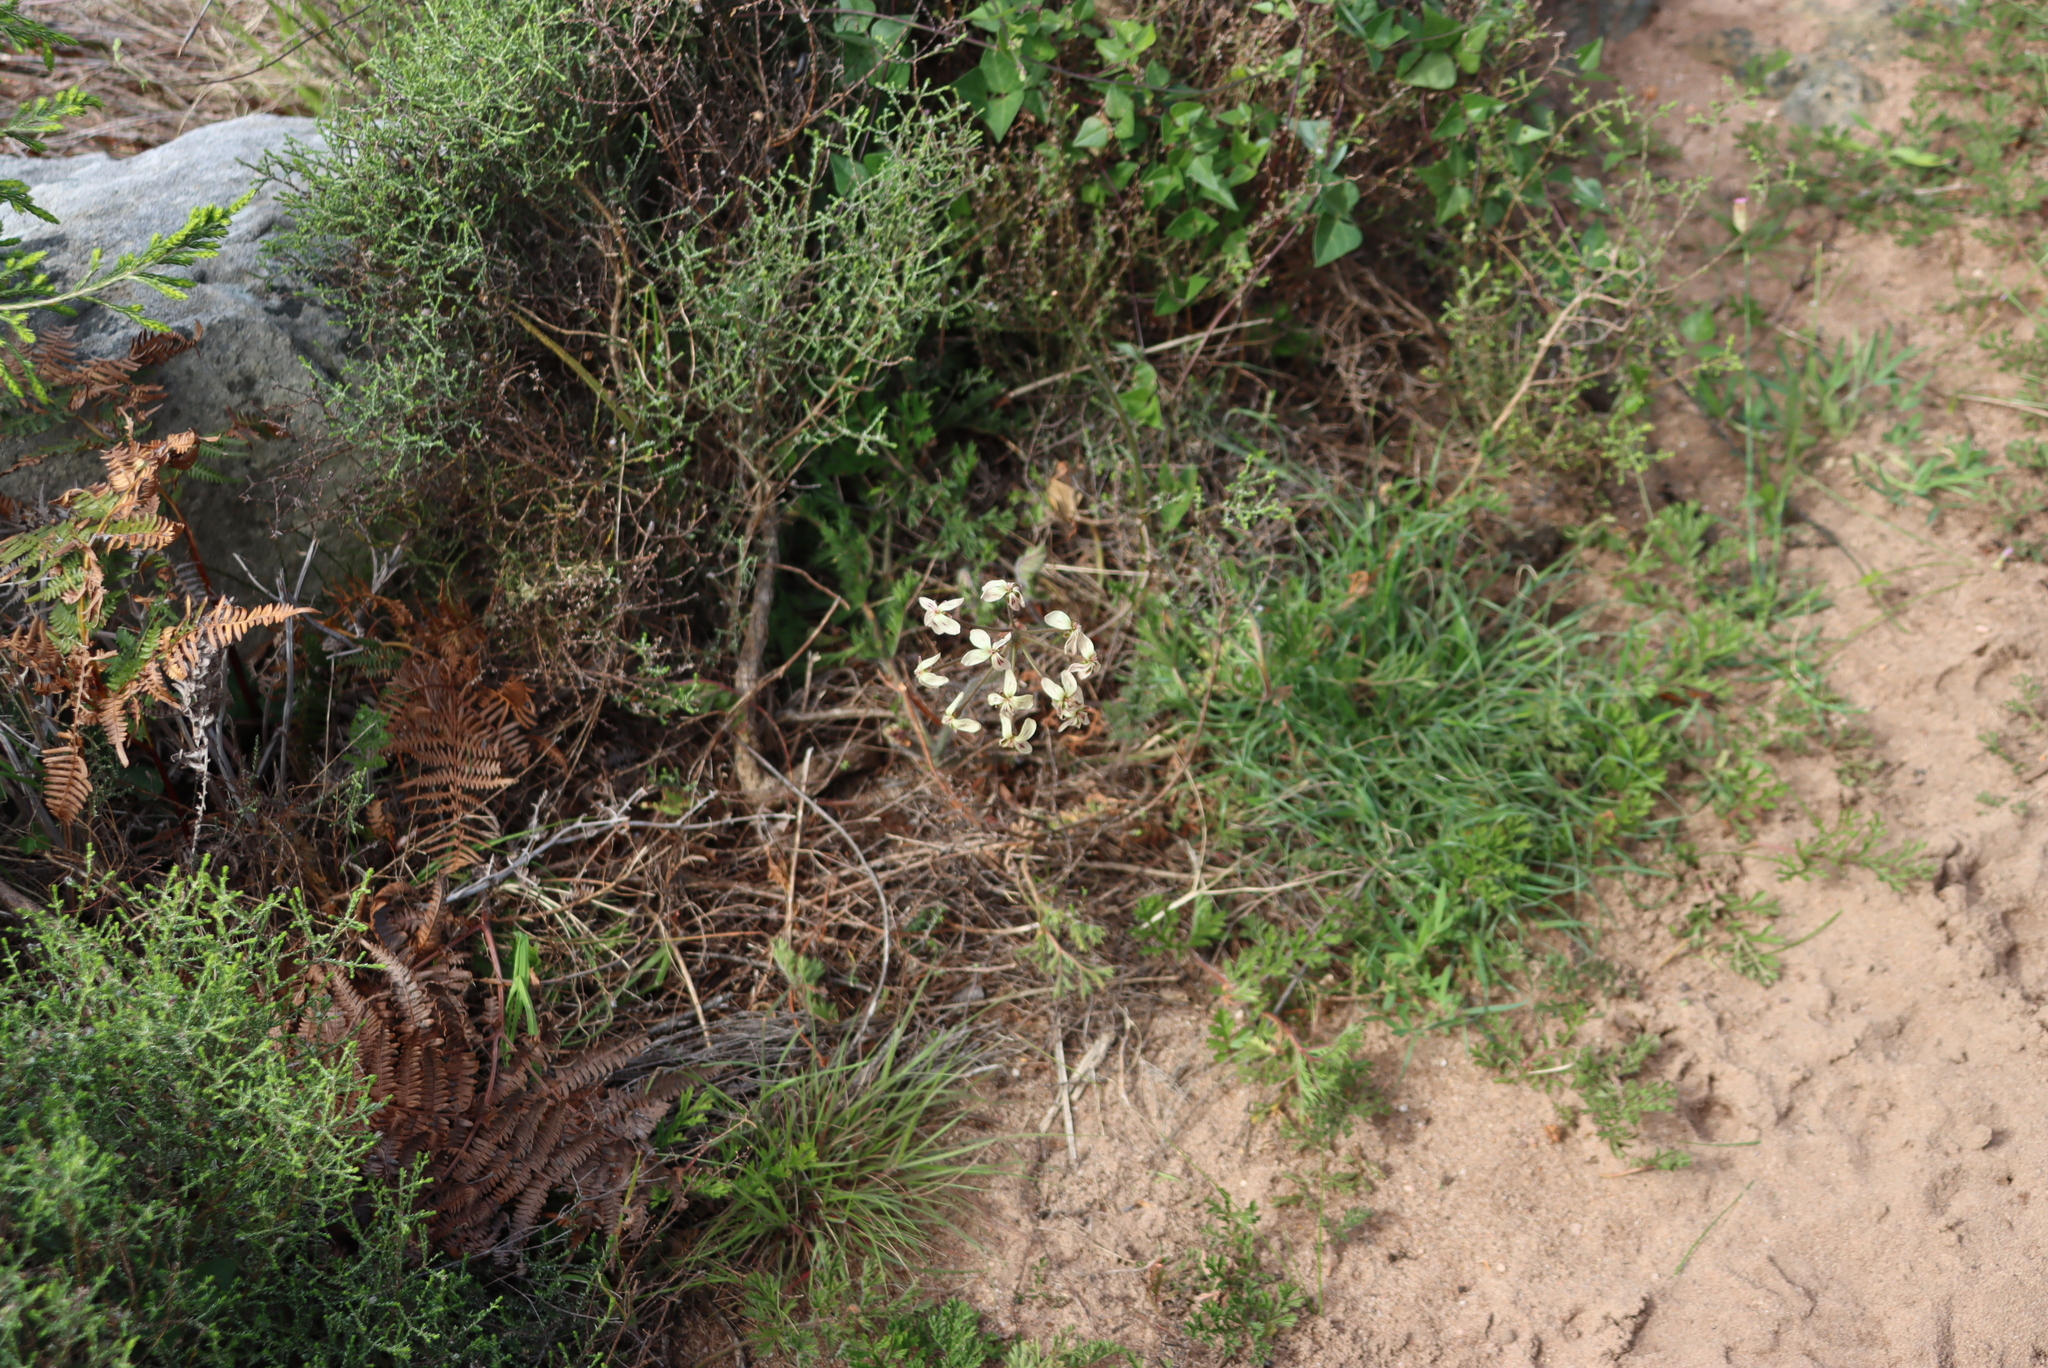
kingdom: Plantae
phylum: Tracheophyta
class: Magnoliopsida
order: Geraniales
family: Geraniaceae
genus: Pelargonium
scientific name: Pelargonium triste
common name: Night-scent pelargonium
